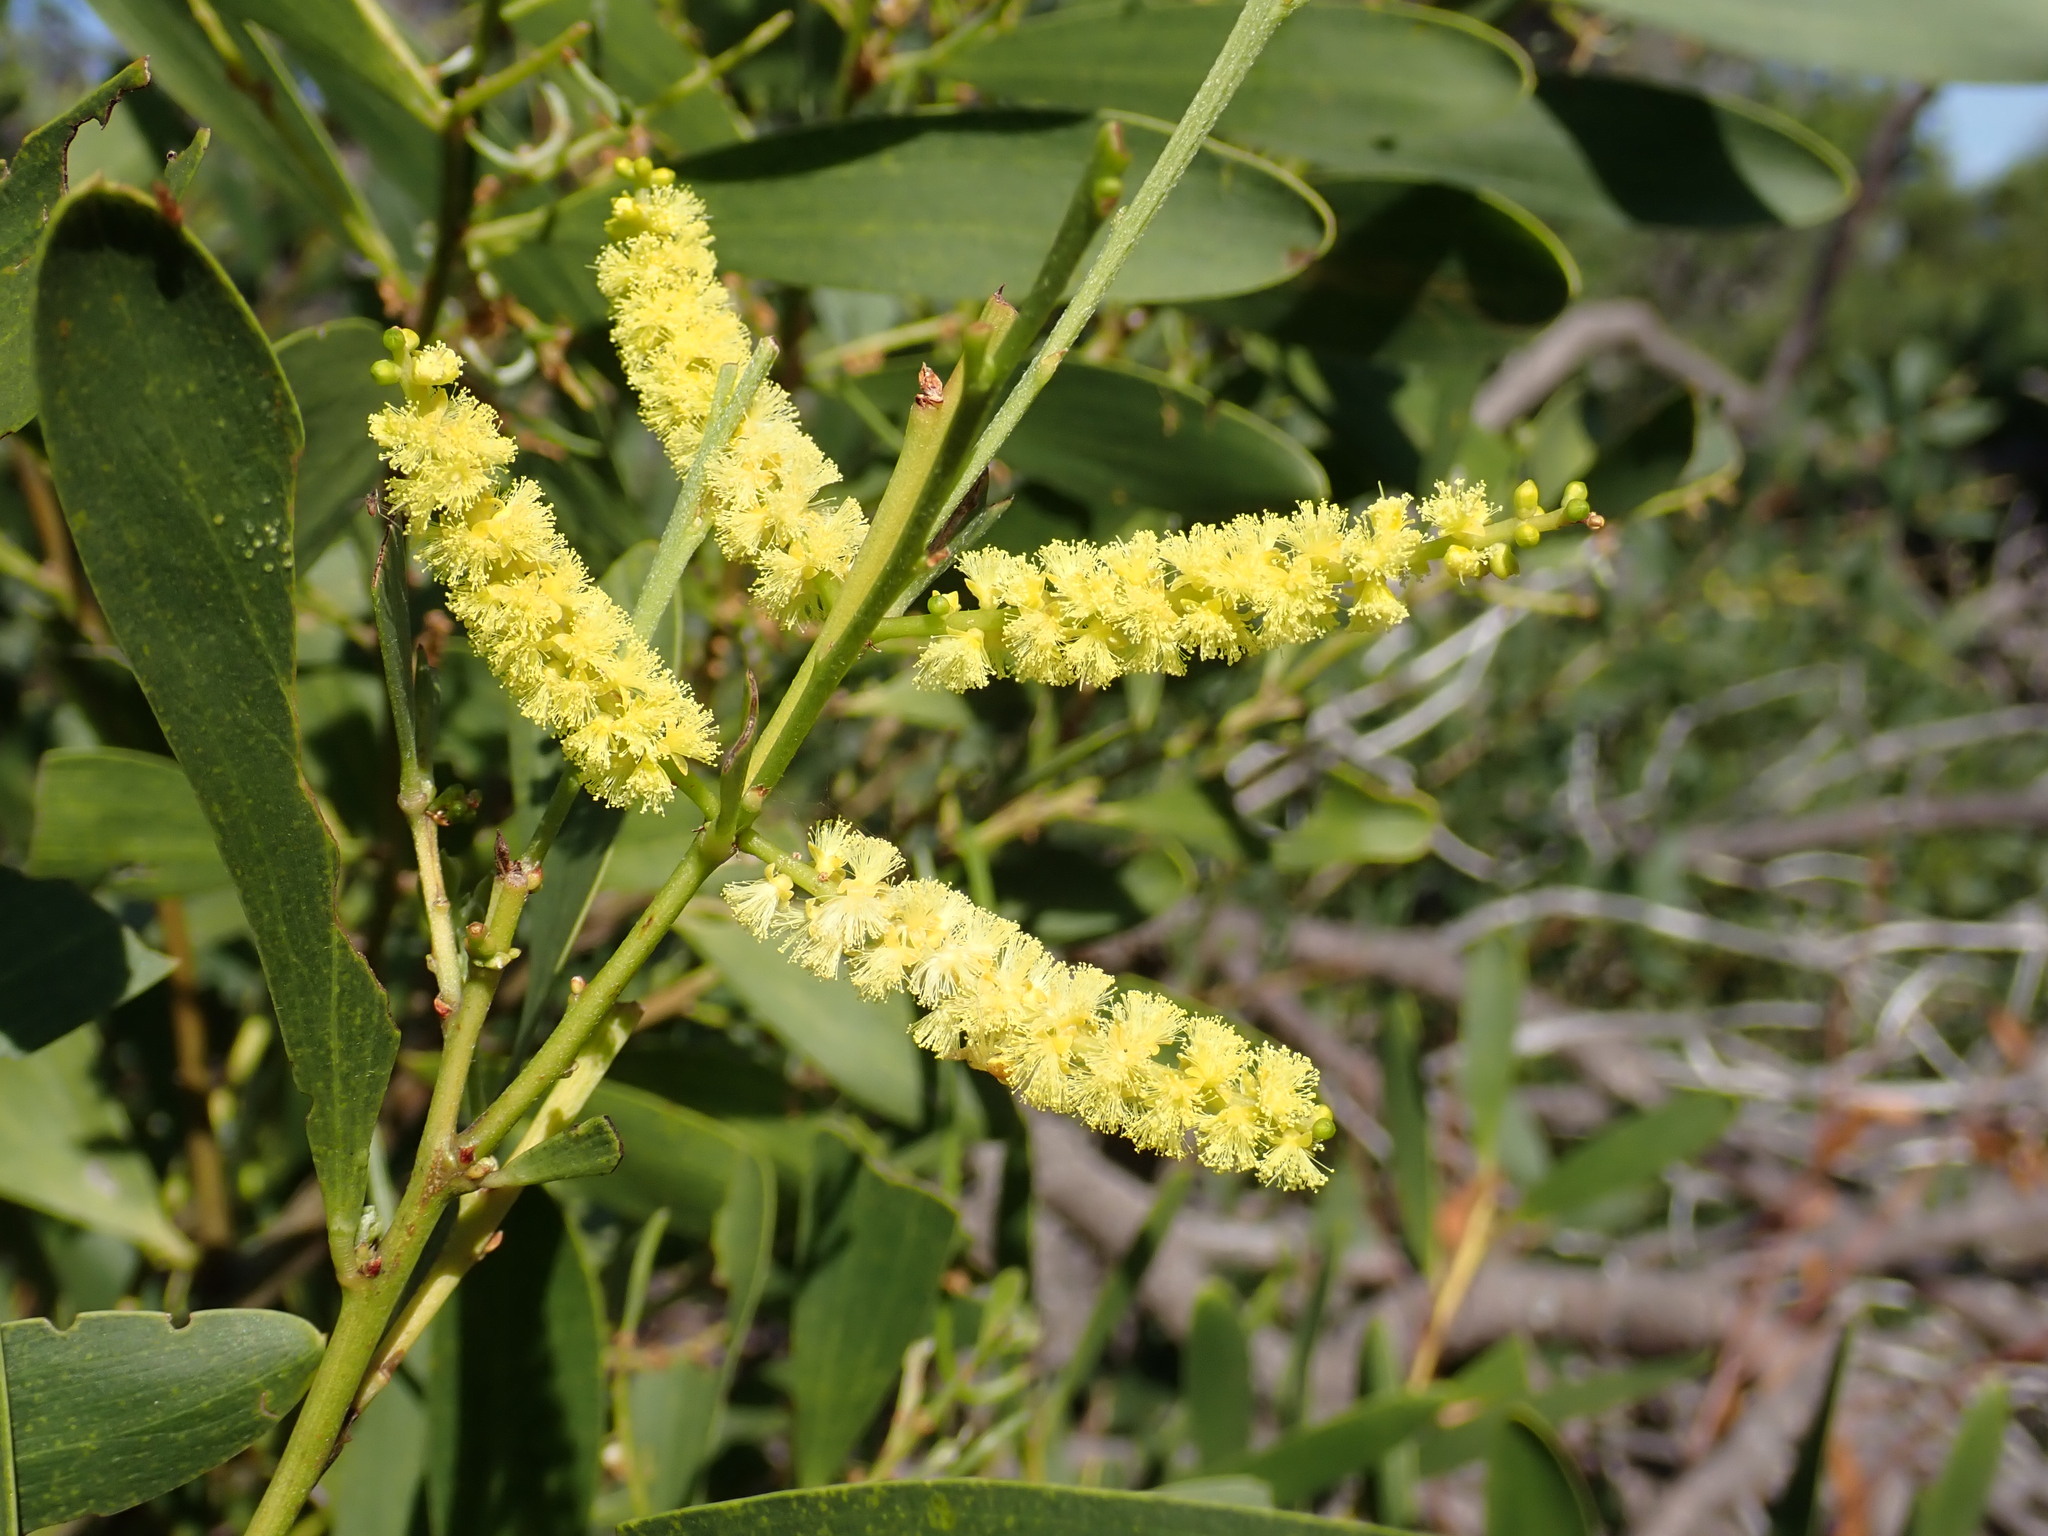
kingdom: Plantae
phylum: Tracheophyta
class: Magnoliopsida
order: Fabales
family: Fabaceae
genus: Acacia
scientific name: Acacia longifolia
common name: Sydney golden wattle
